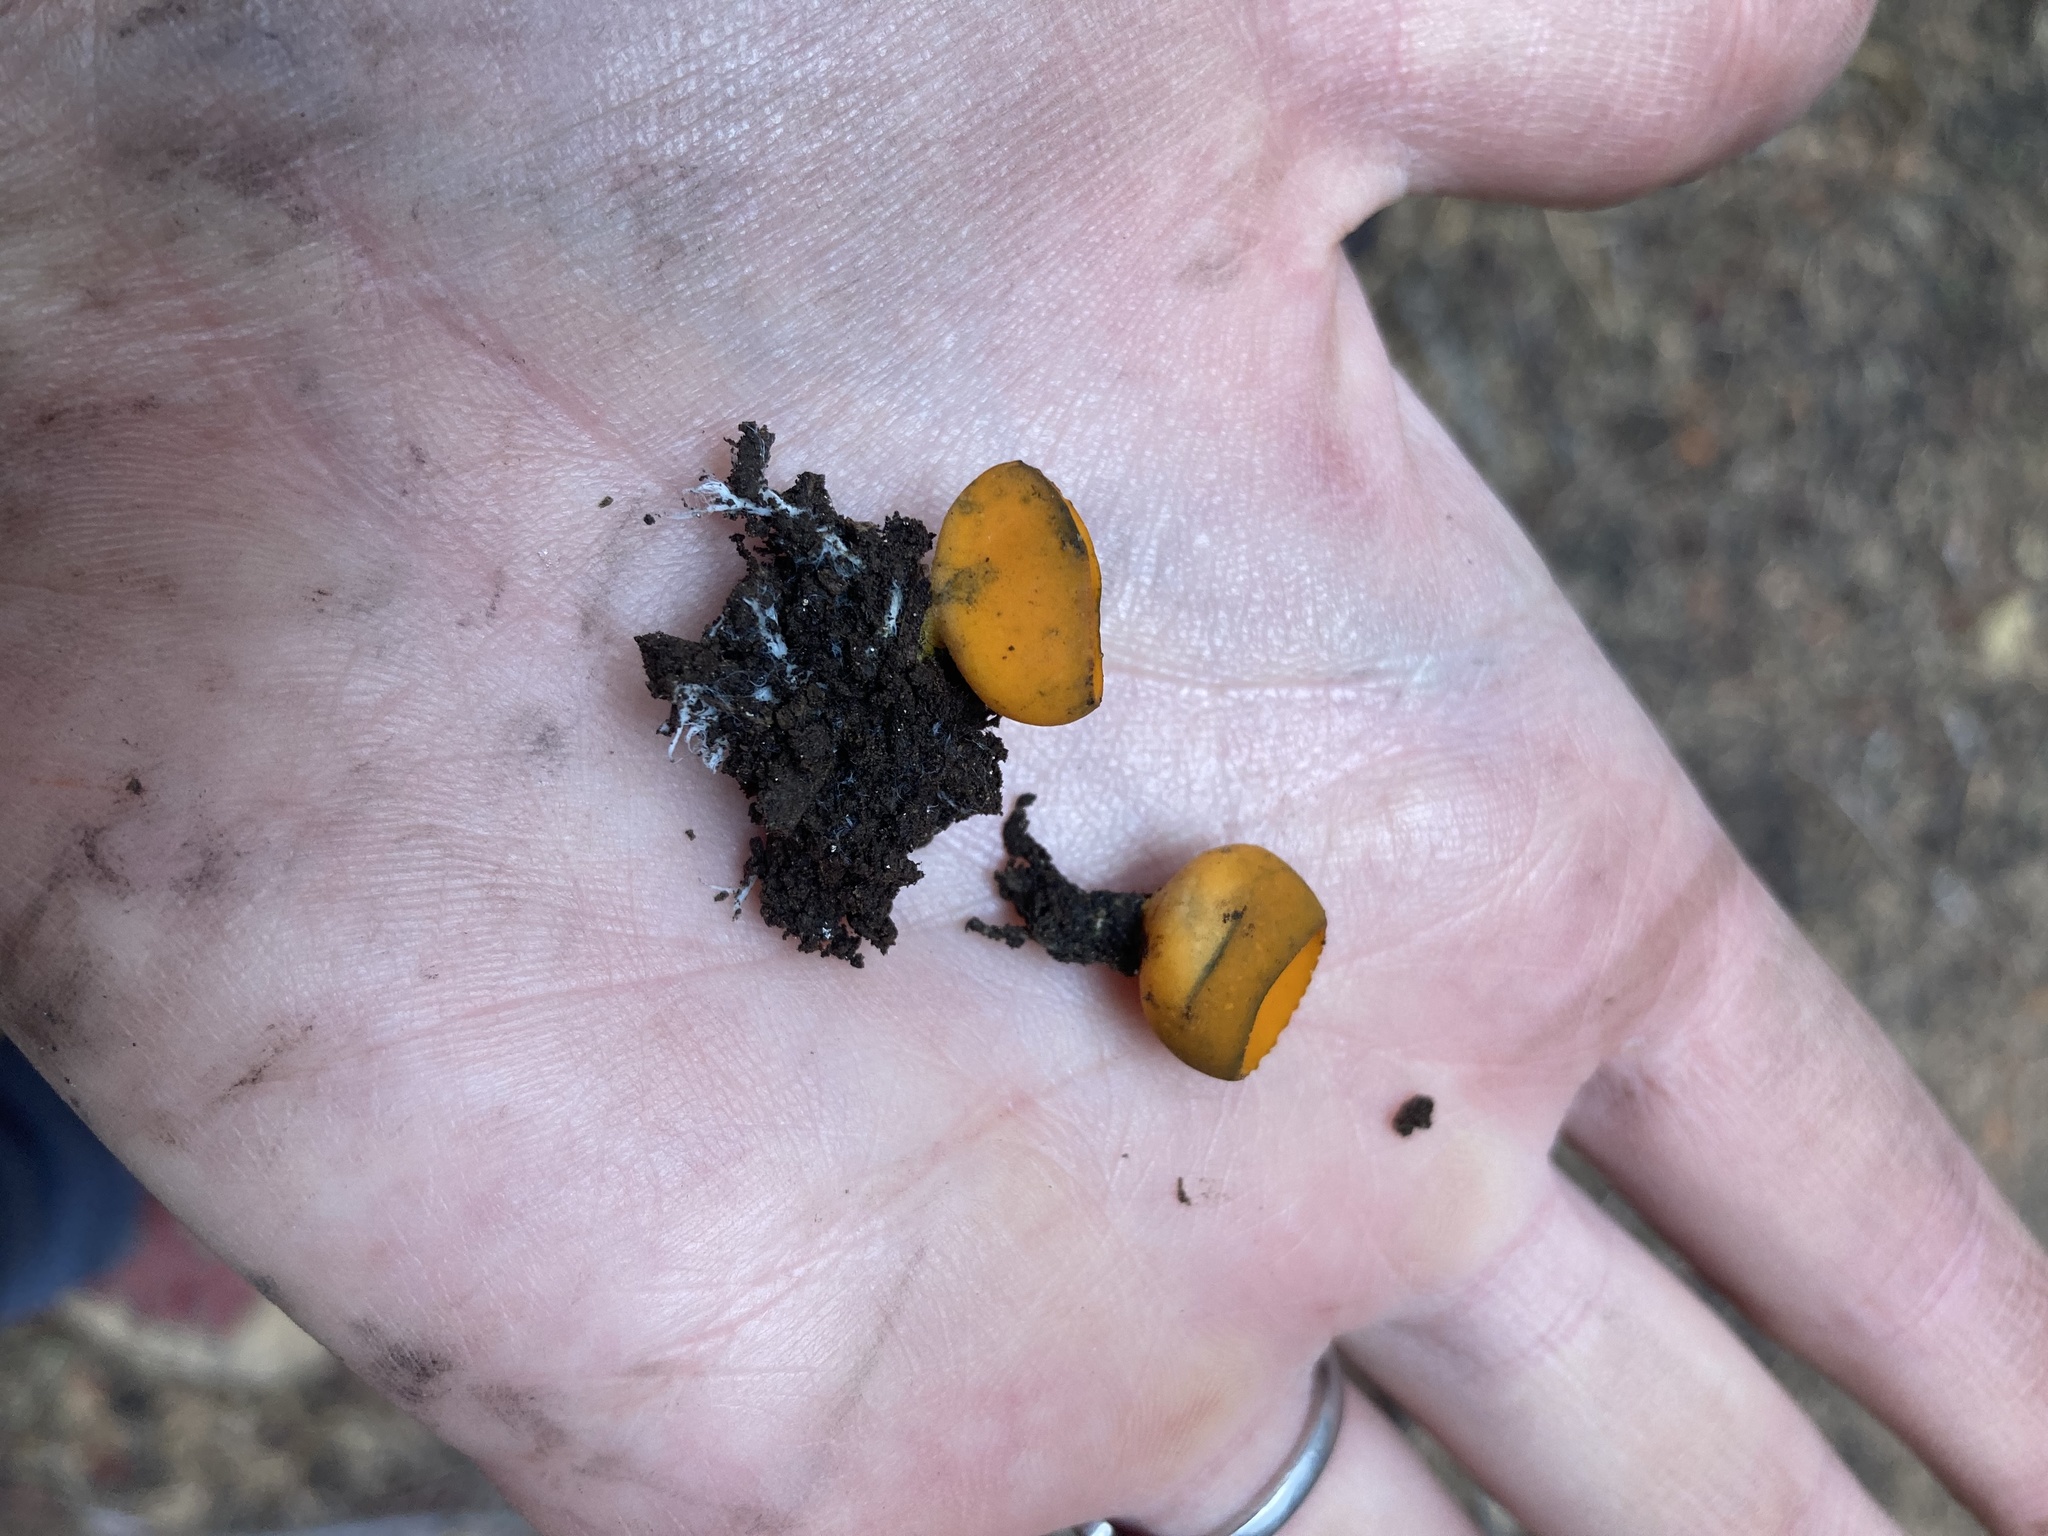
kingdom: Fungi
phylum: Ascomycota
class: Pezizomycetes
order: Pezizales
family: Caloscyphaceae
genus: Caloscypha
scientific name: Caloscypha fulgens
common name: Golden cup
